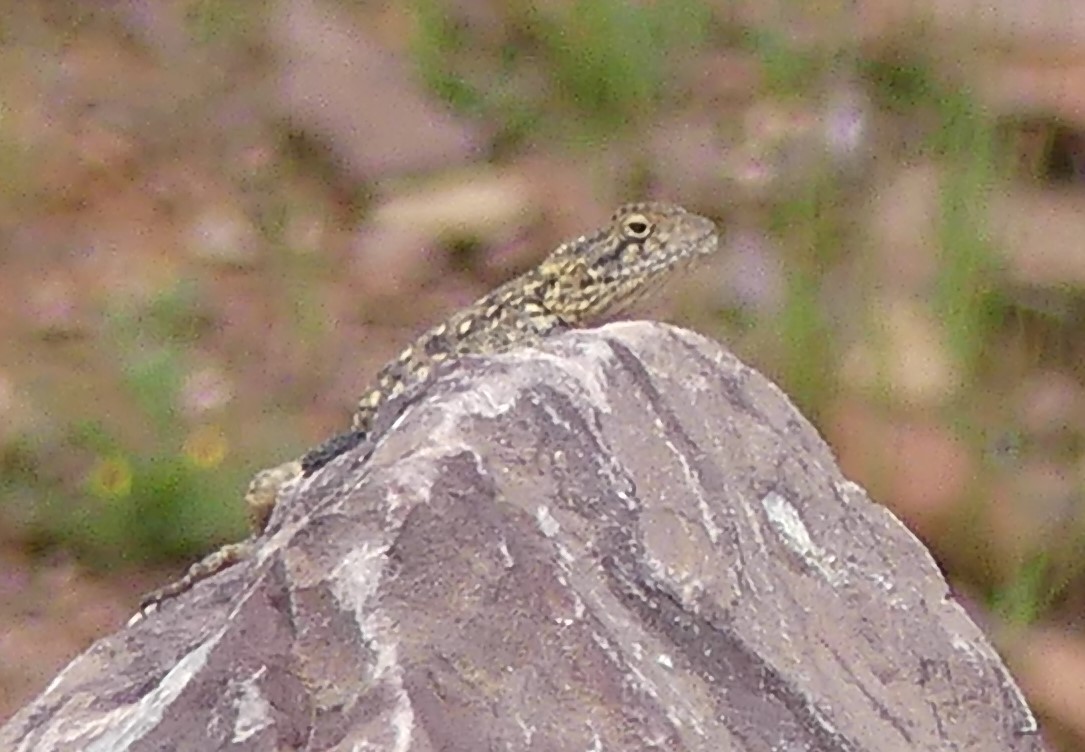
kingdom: Animalia
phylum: Chordata
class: Squamata
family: Agamidae
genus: Agama
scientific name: Agama impalearis
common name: Bibron's agama
